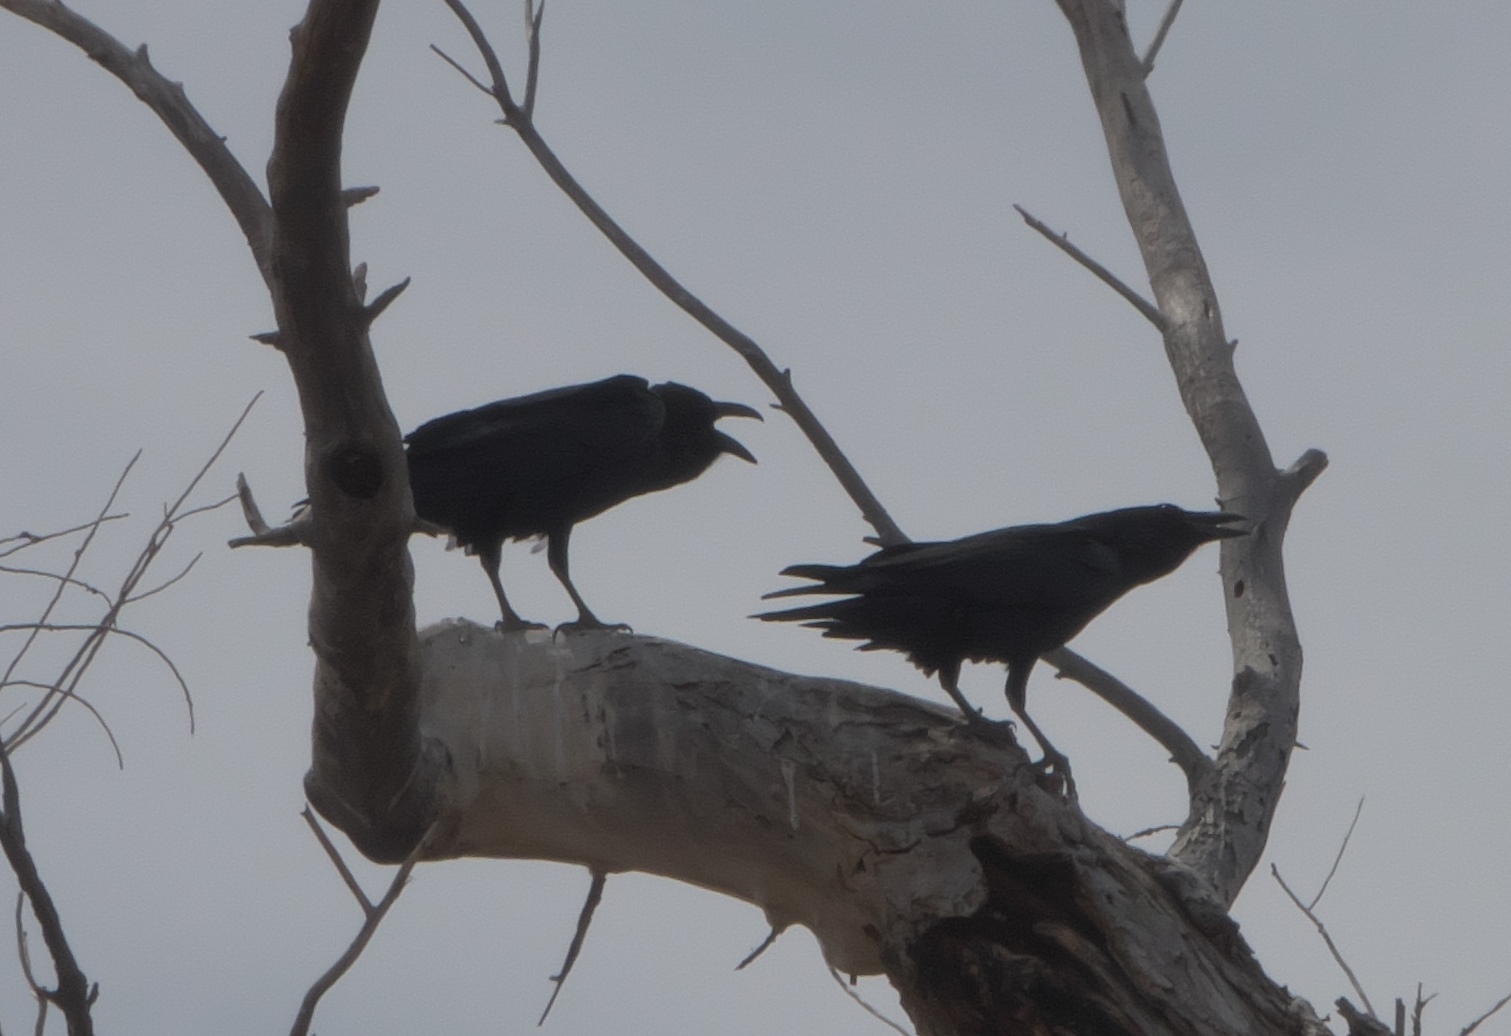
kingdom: Animalia
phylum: Chordata
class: Aves
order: Passeriformes
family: Corvidae
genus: Corvus
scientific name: Corvus corax
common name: Common raven
